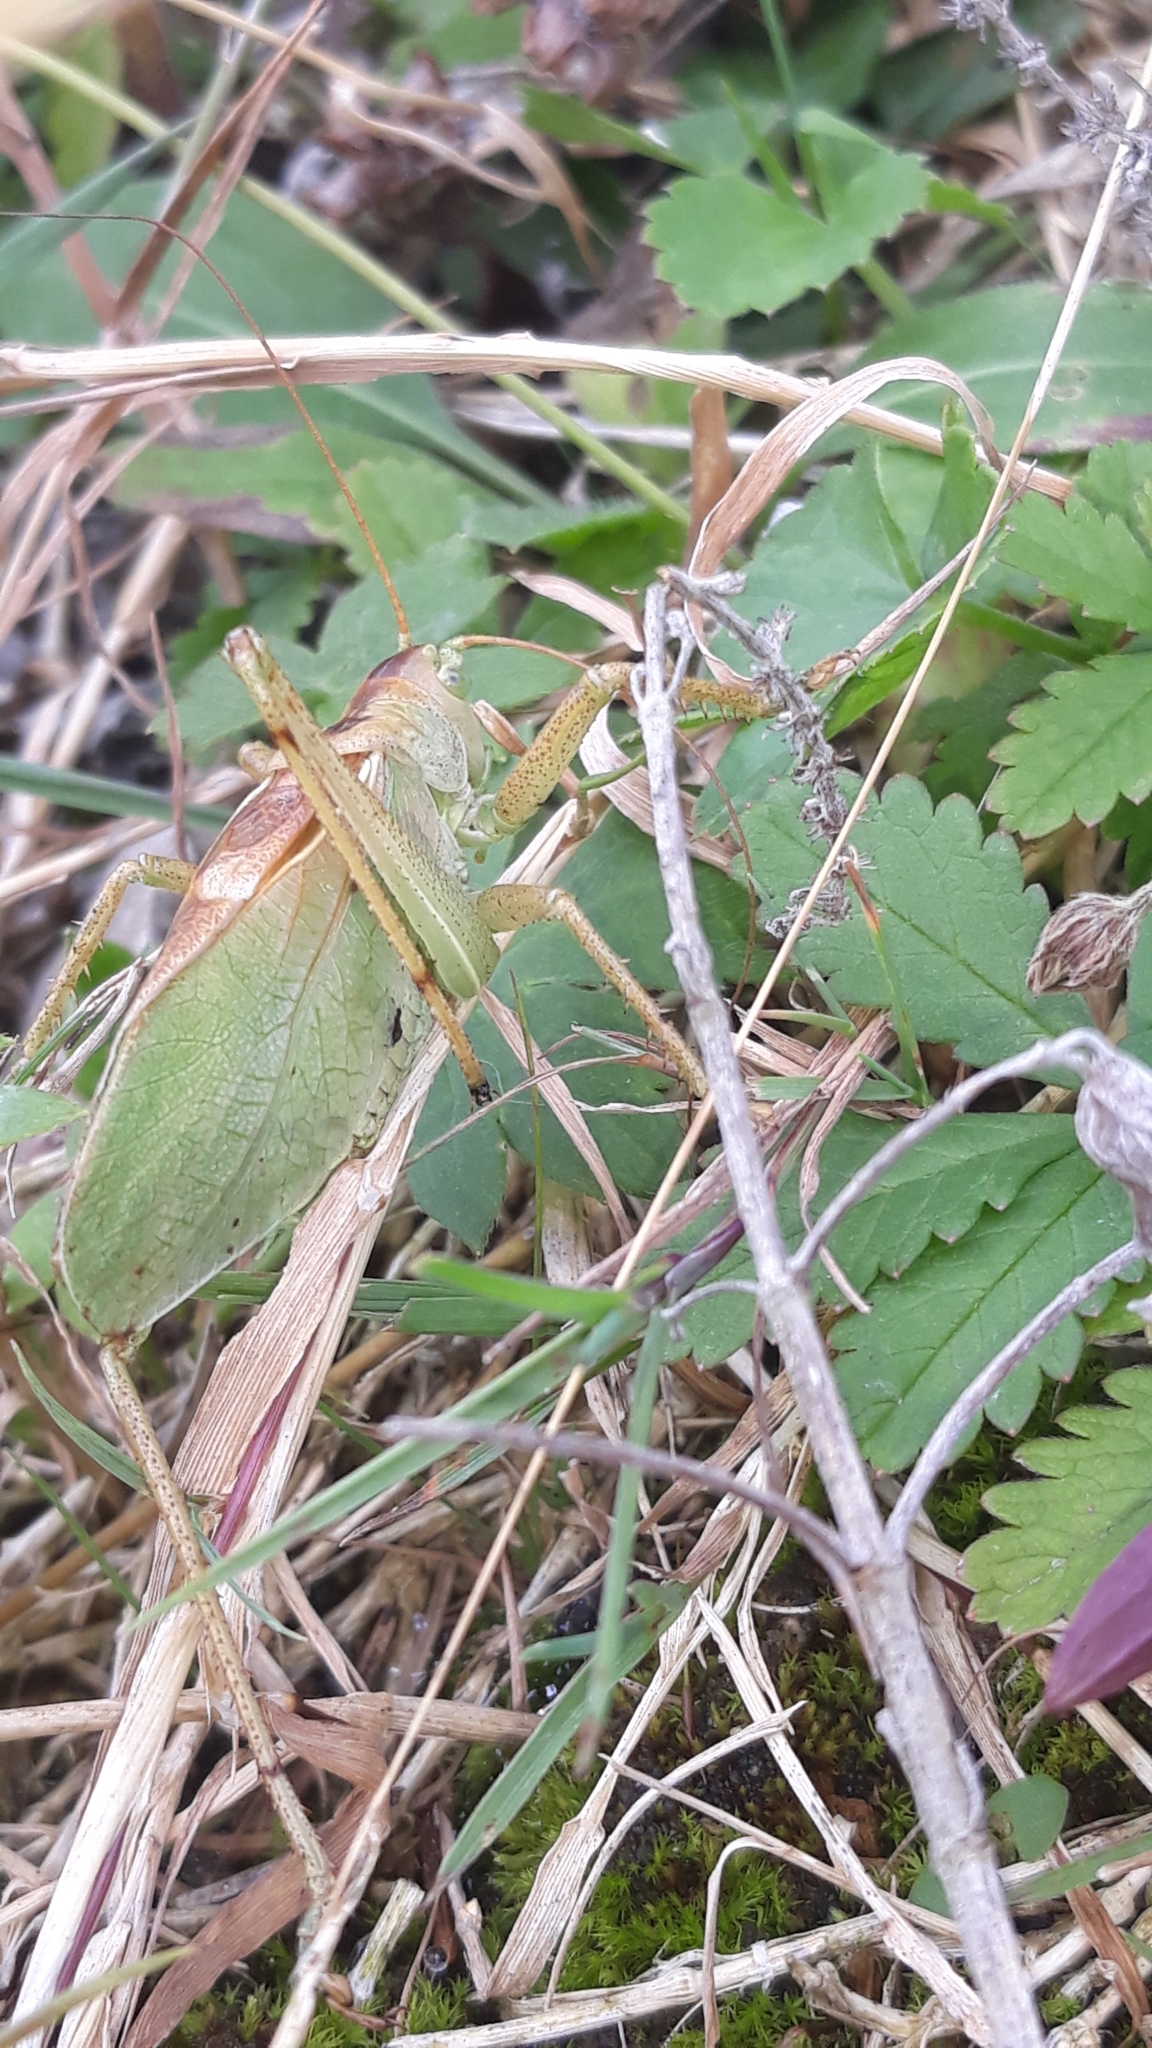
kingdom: Animalia
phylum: Arthropoda
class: Insecta
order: Orthoptera
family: Tettigoniidae
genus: Tettigonia
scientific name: Tettigonia cantans
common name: Upland green bush-cricket
